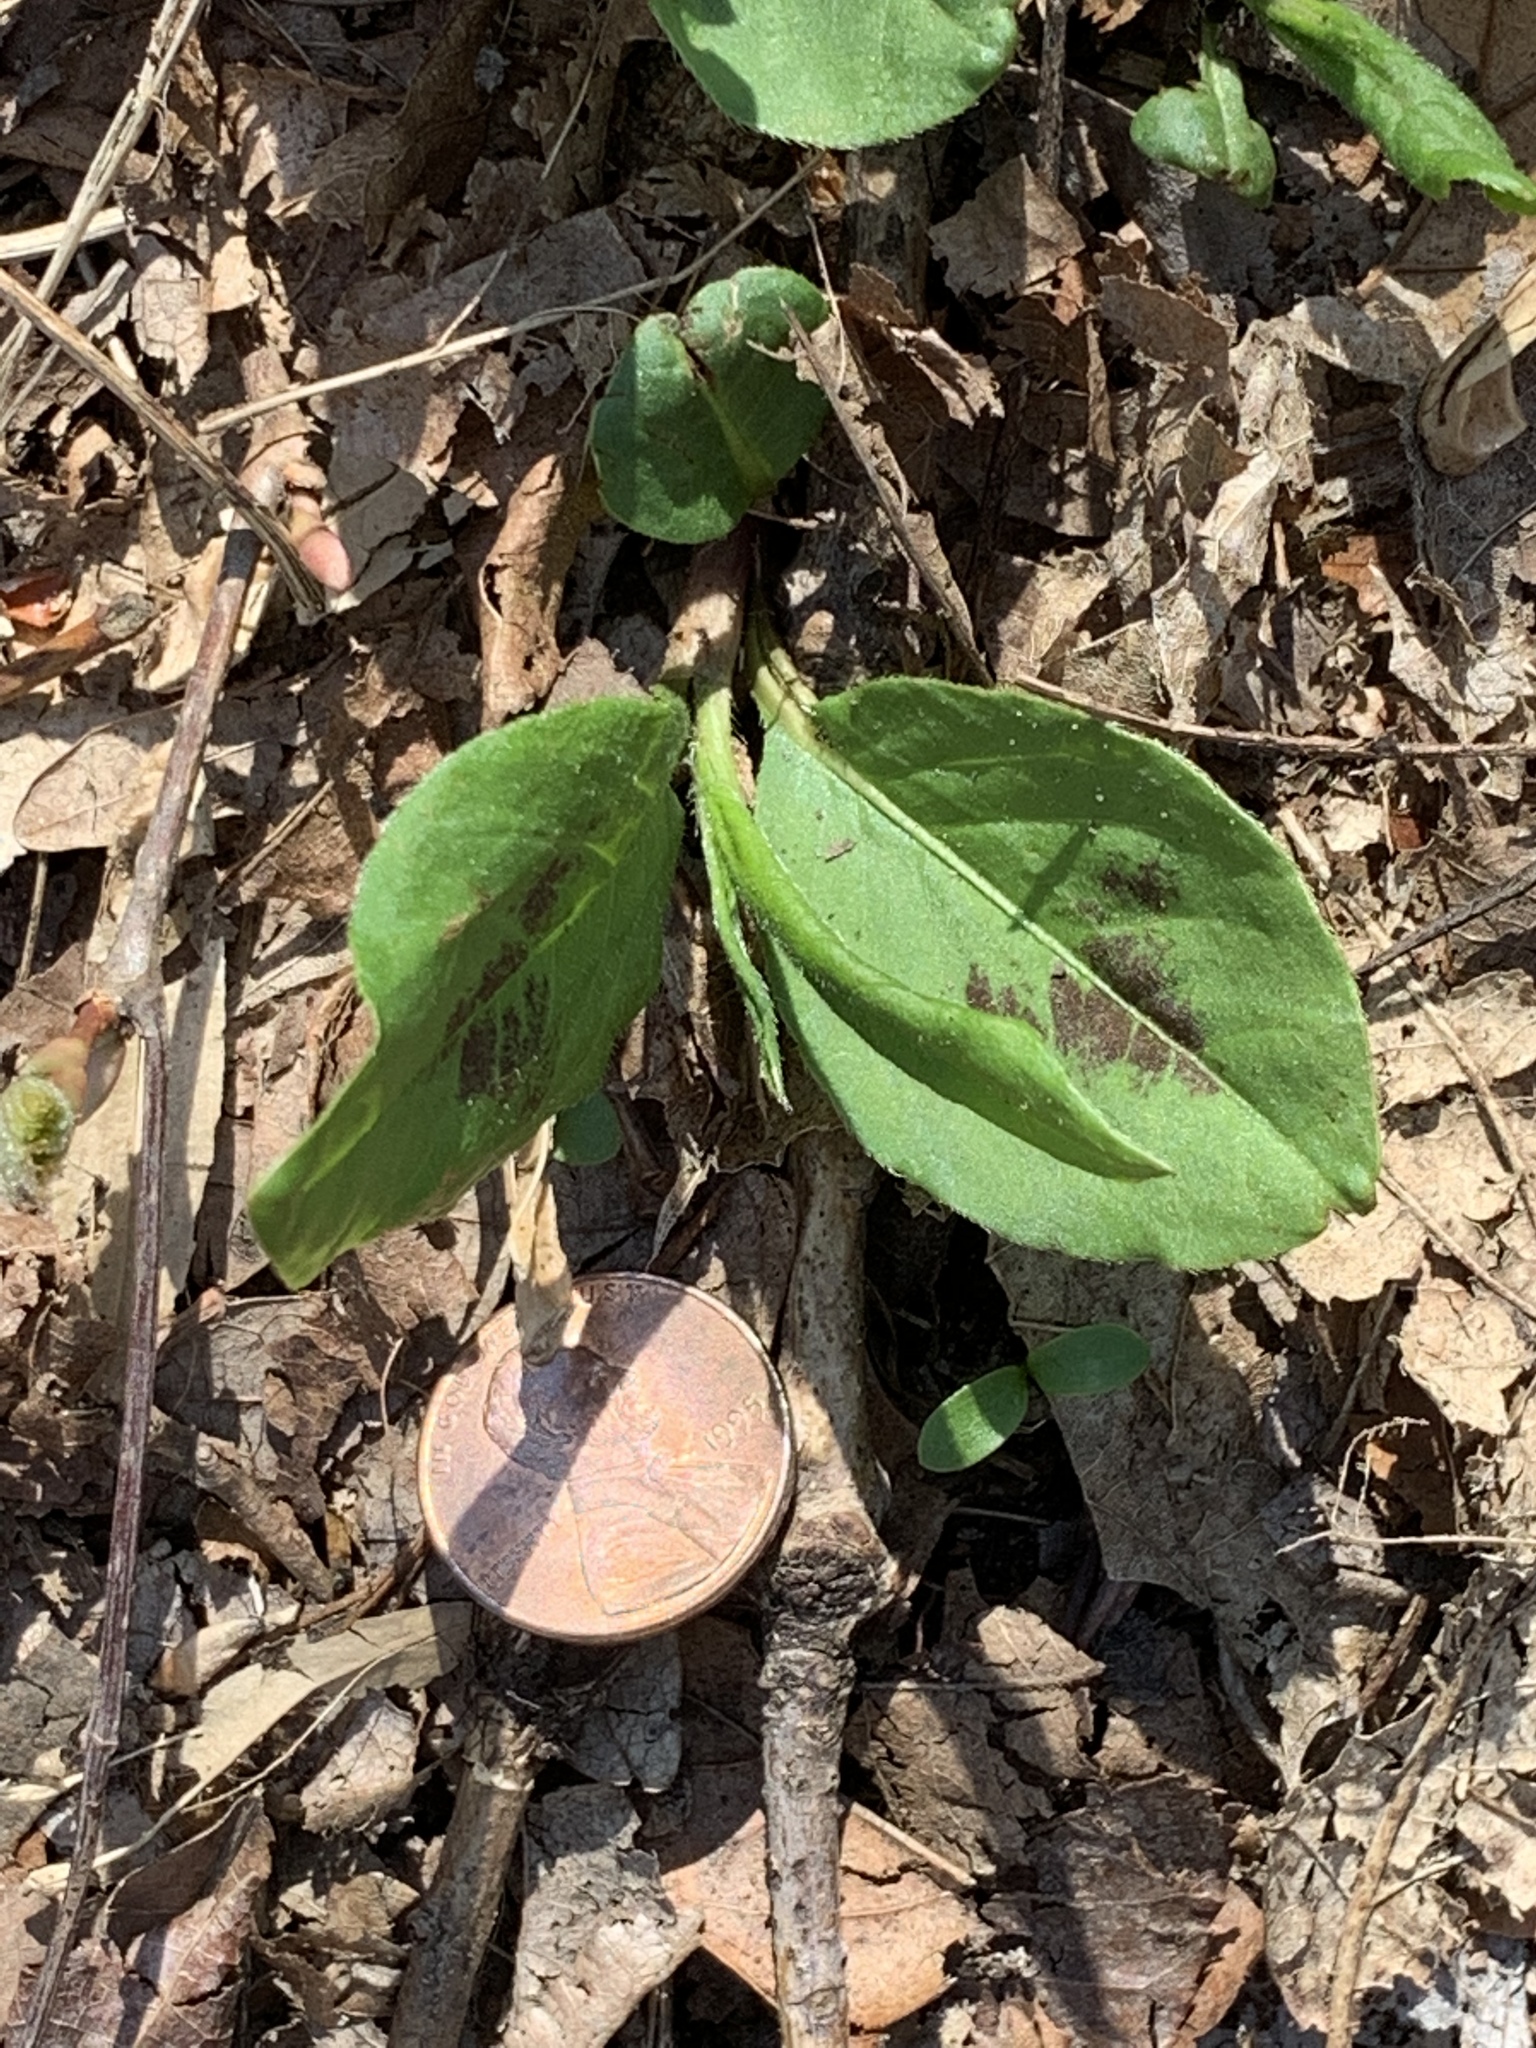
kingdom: Plantae
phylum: Tracheophyta
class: Magnoliopsida
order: Caryophyllales
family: Polygonaceae
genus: Persicaria
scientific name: Persicaria virginiana
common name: Jumpseed
